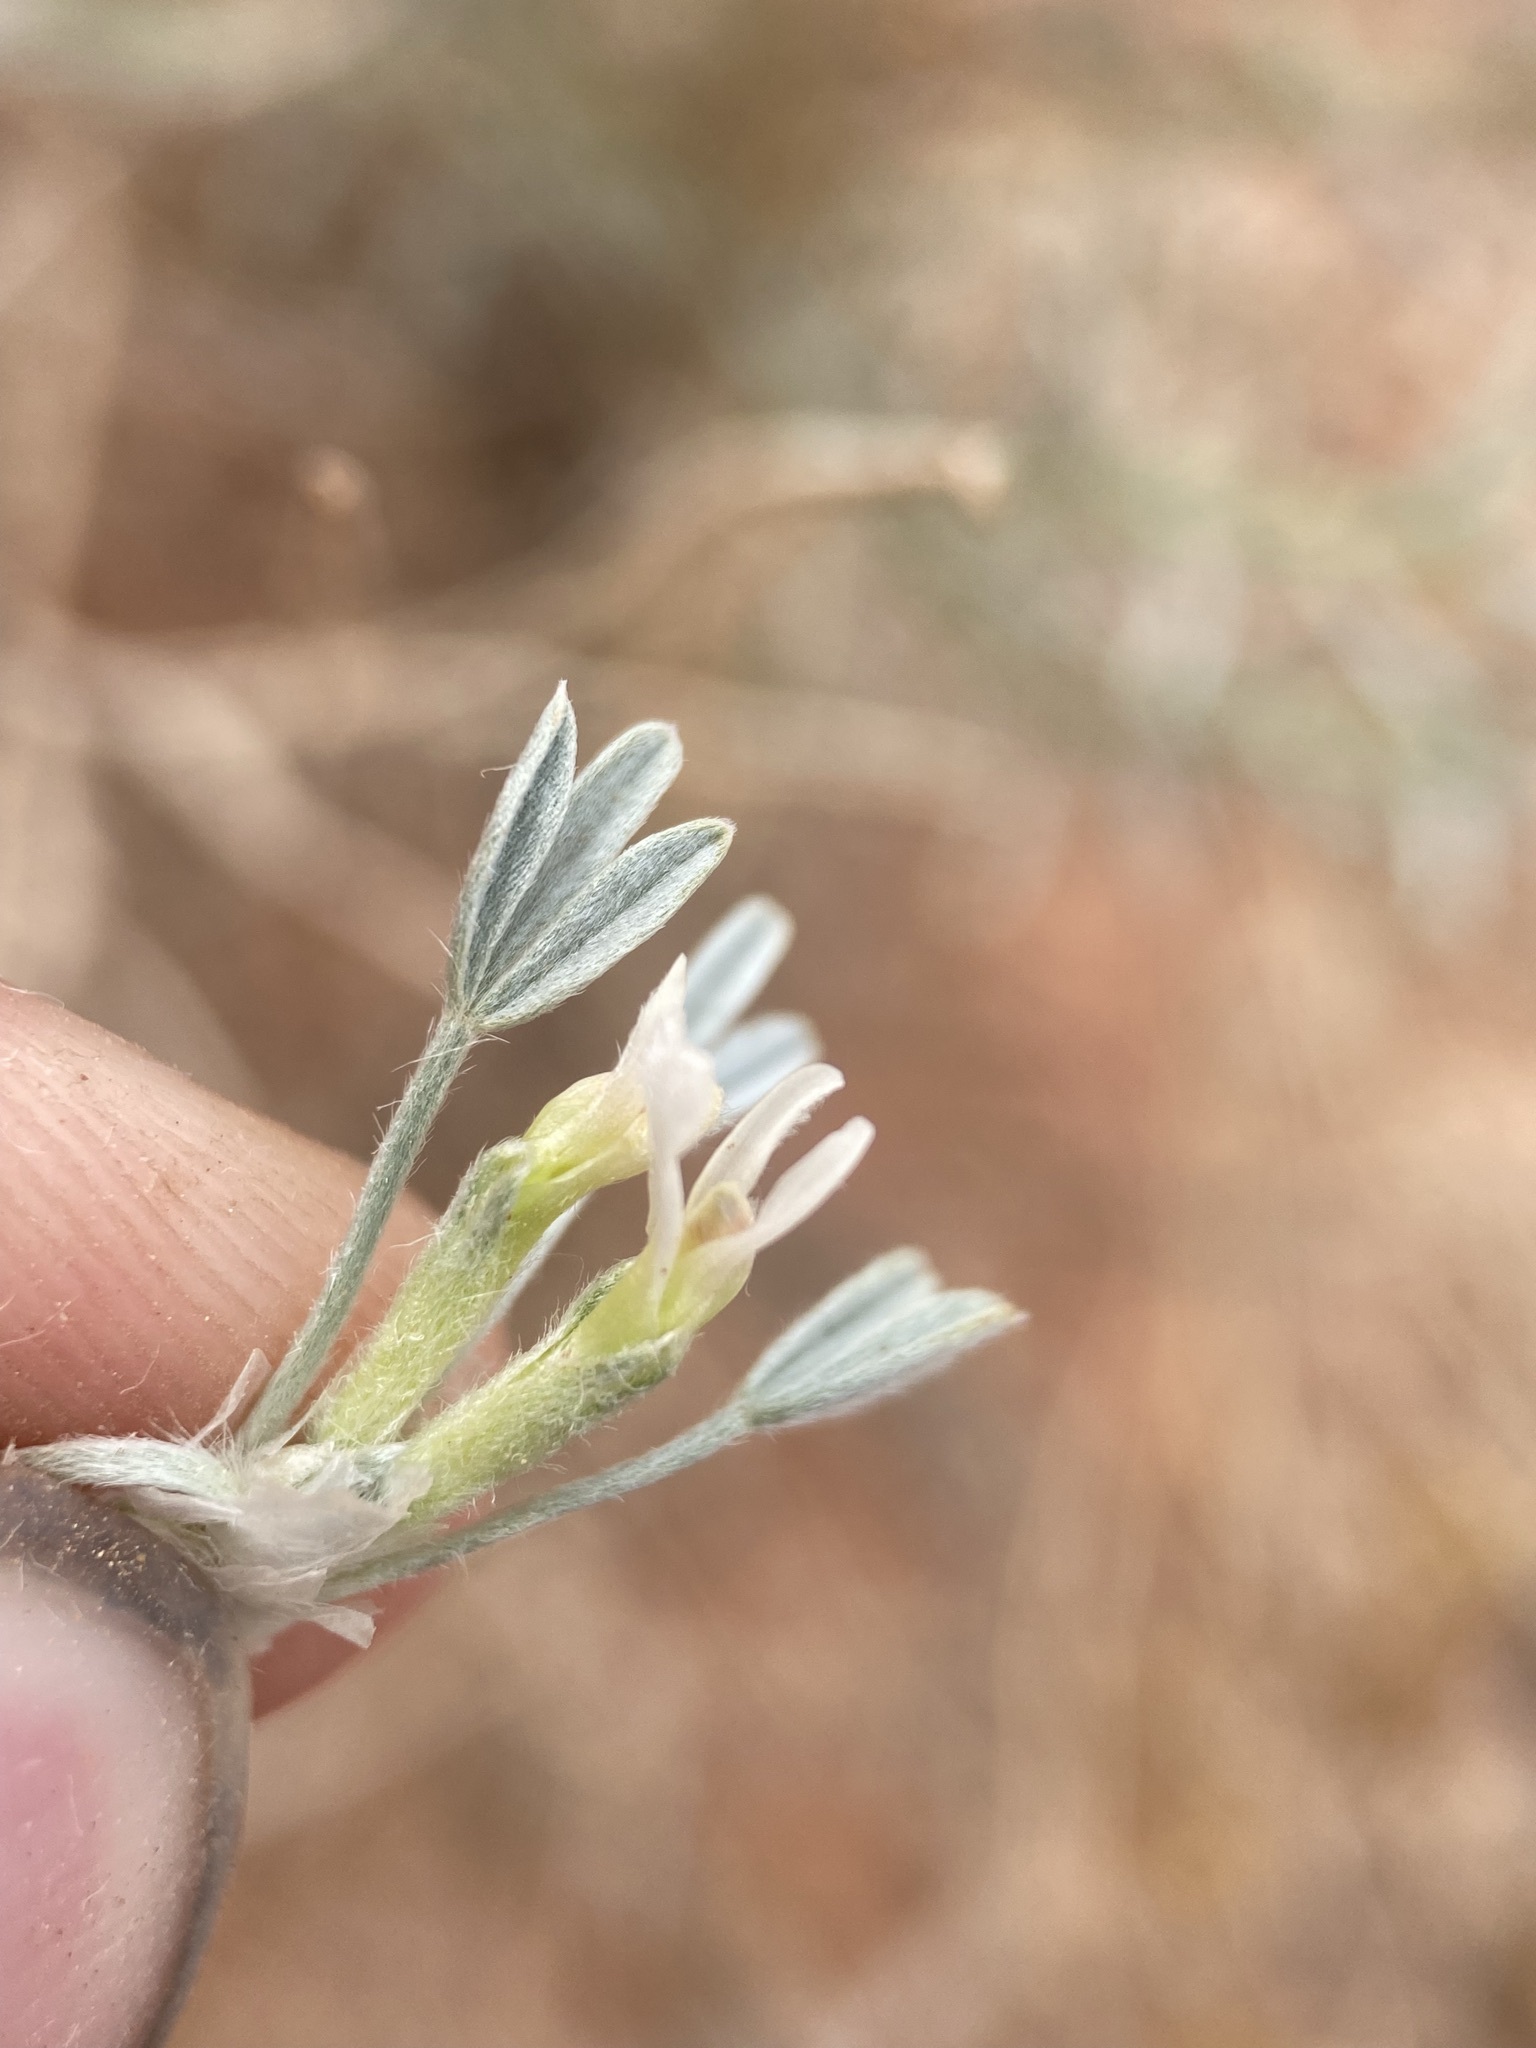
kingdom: Plantae
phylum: Tracheophyta
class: Magnoliopsida
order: Fabales
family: Fabaceae
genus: Astragalus
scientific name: Astragalus hyalinus
